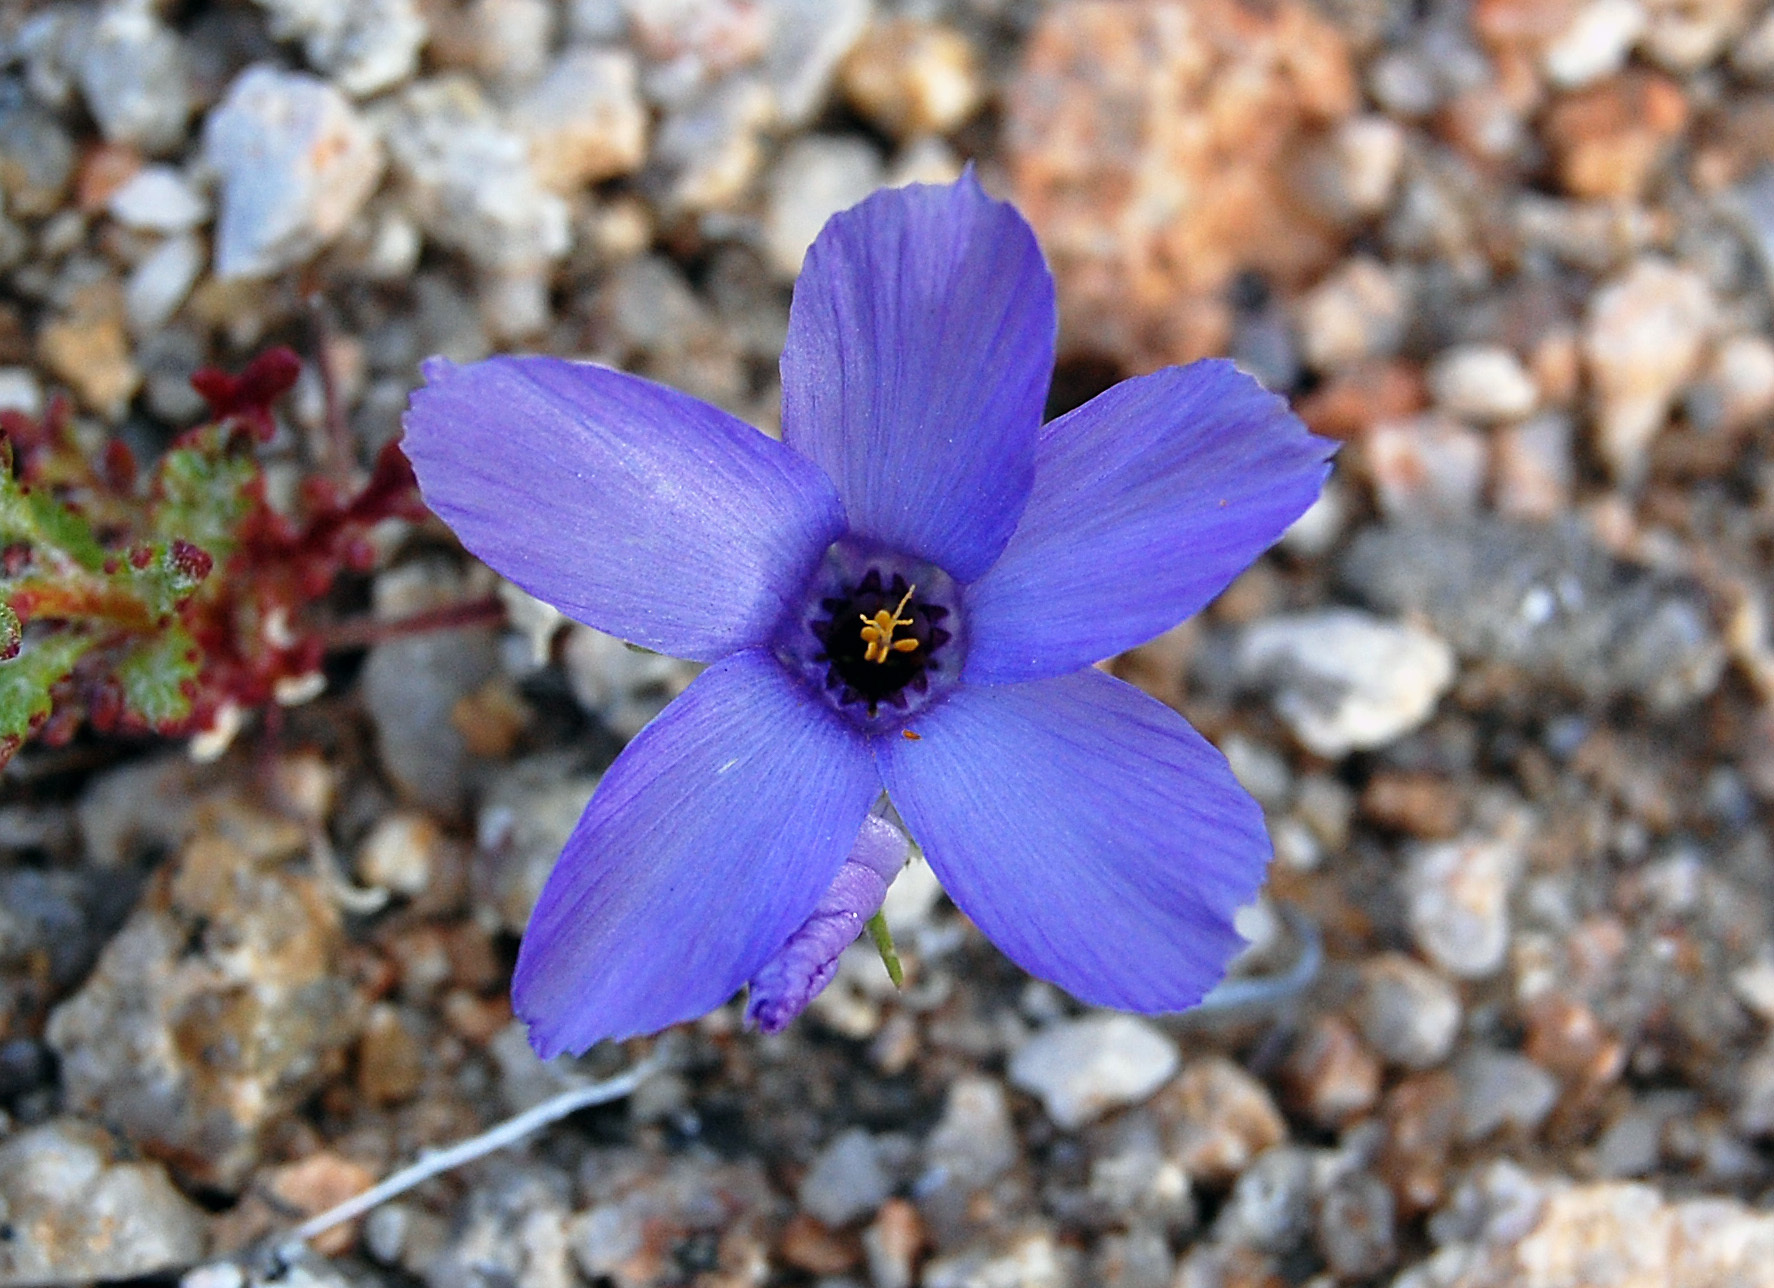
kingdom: Plantae
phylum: Tracheophyta
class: Magnoliopsida
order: Ericales
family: Polemoniaceae
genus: Linanthus
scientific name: Linanthus parryae
